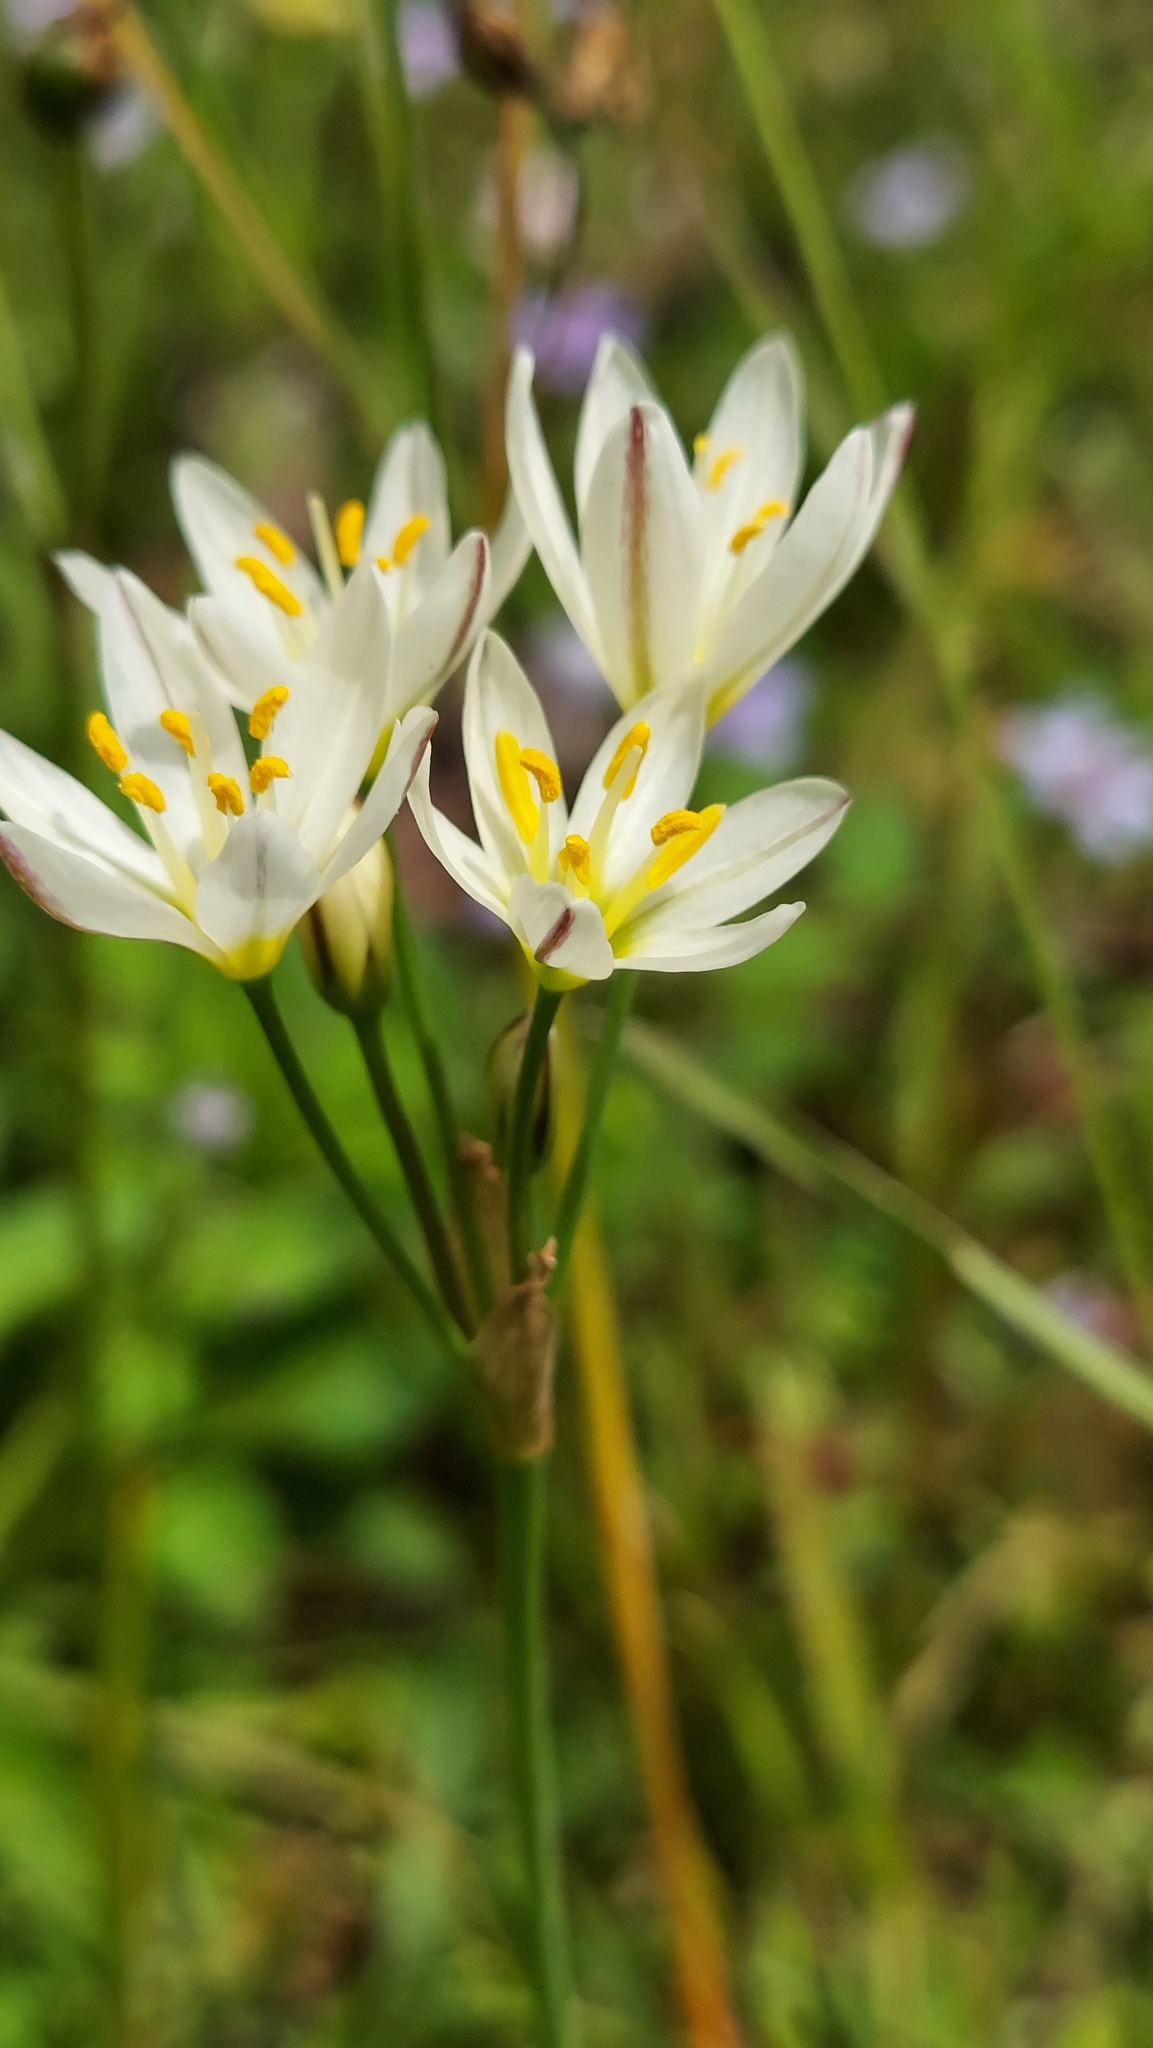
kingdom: Plantae
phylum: Tracheophyta
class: Liliopsida
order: Asparagales
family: Amaryllidaceae
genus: Nothoscordum
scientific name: Nothoscordum bivalve
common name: Crow-poison
